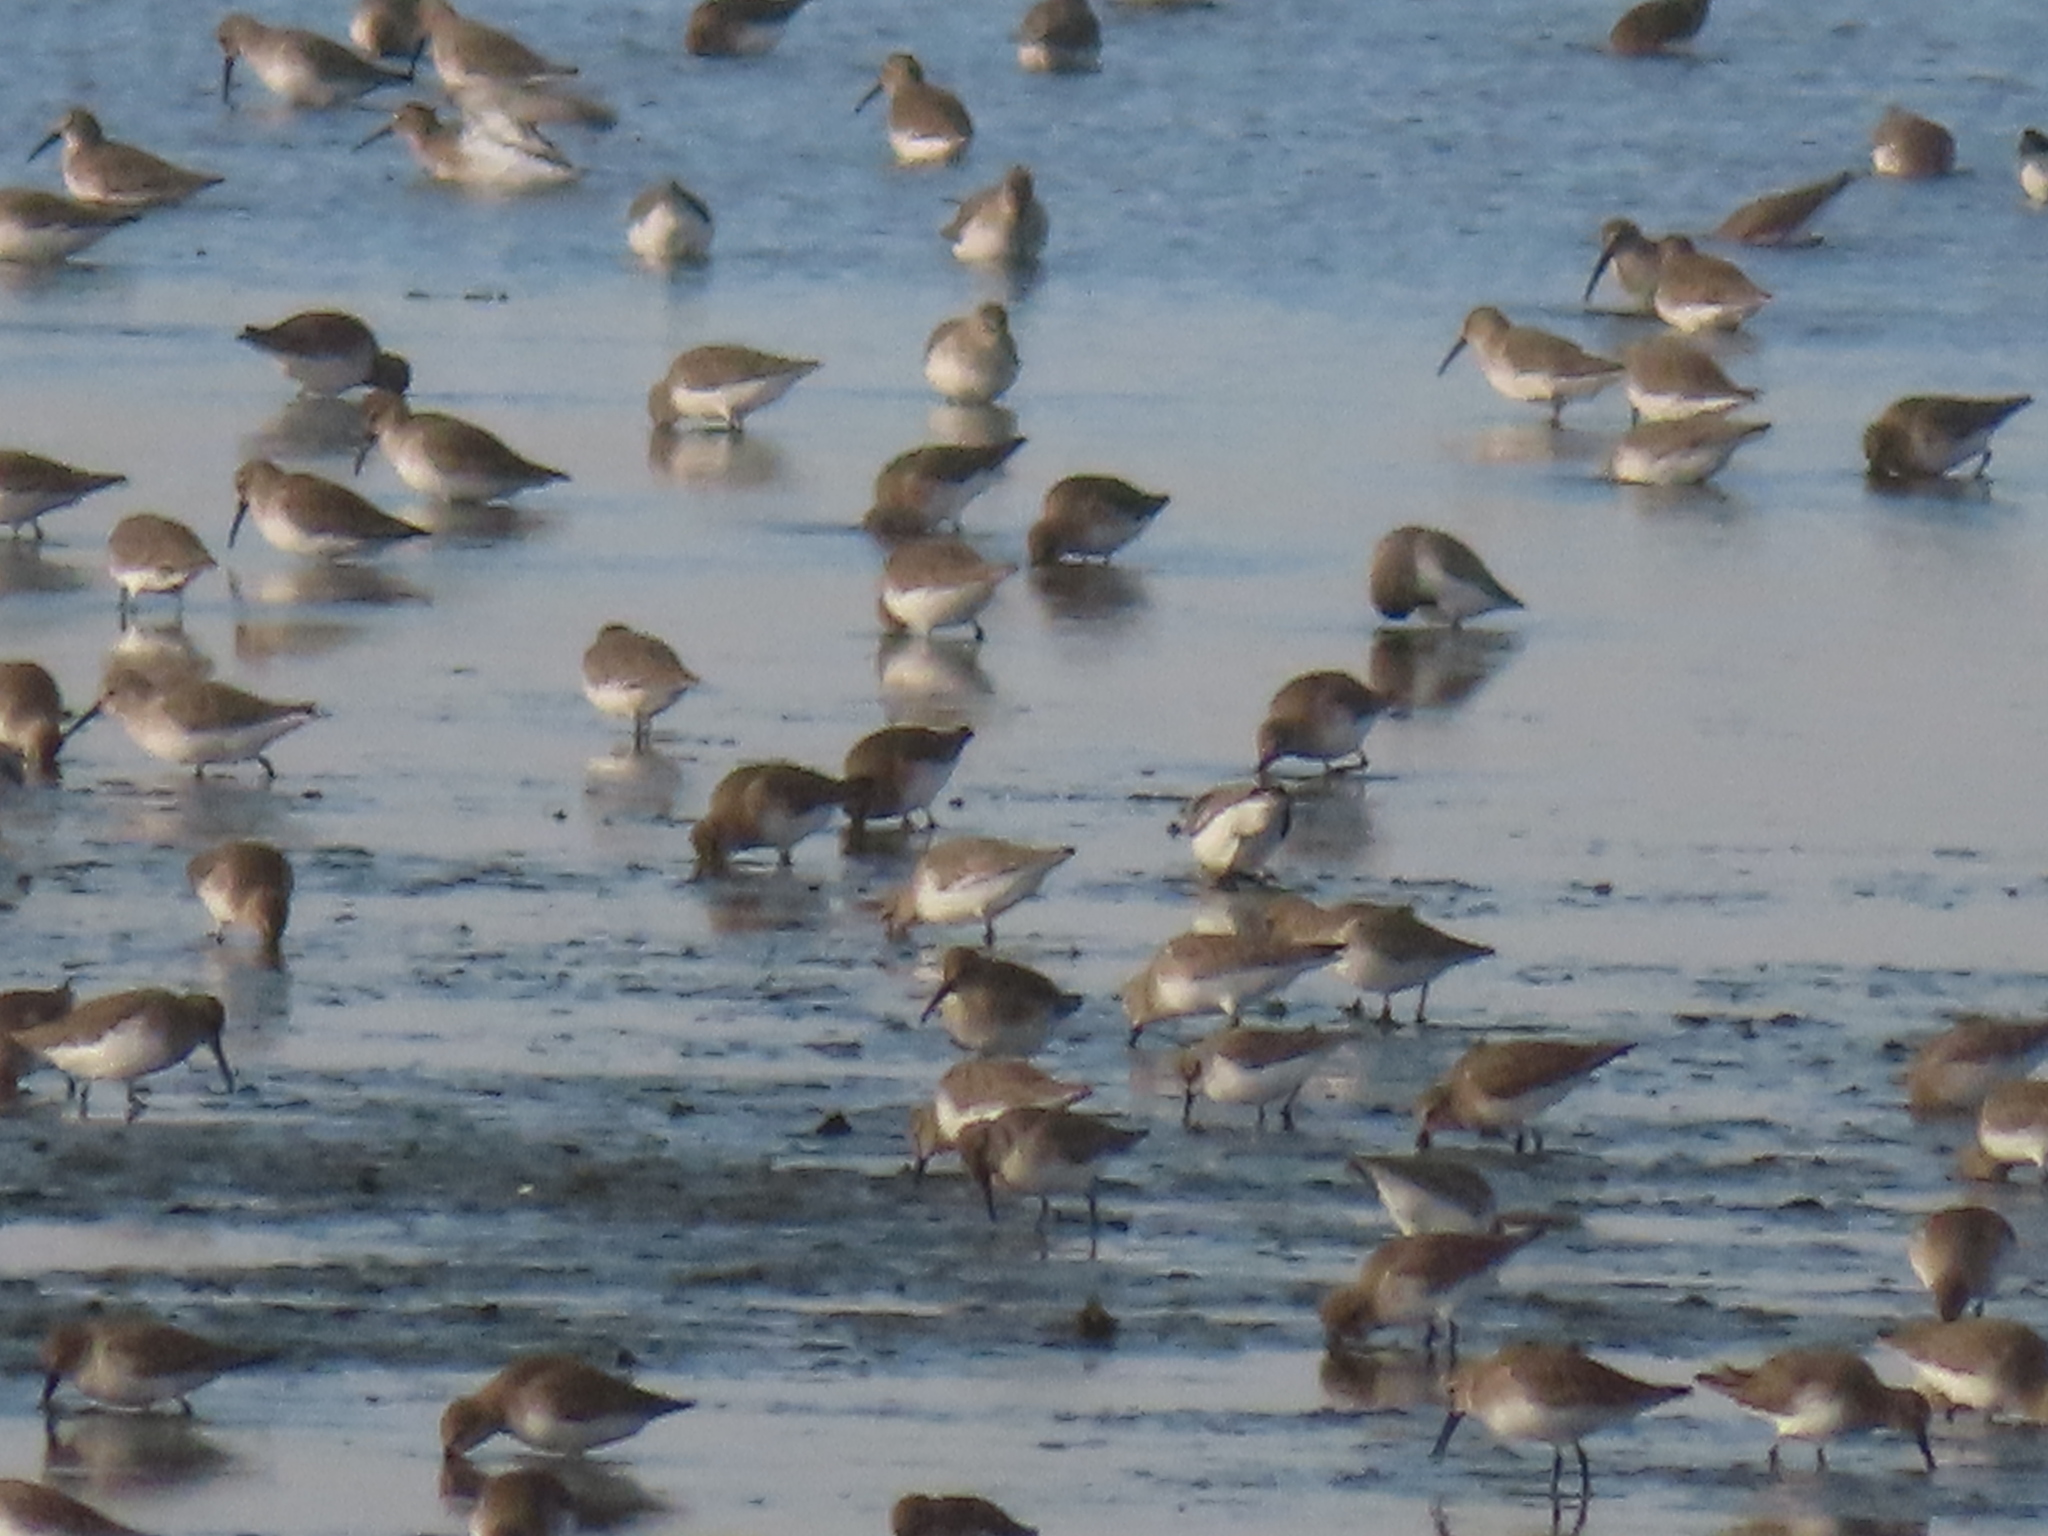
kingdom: Animalia
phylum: Chordata
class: Aves
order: Charadriiformes
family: Scolopacidae
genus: Calidris
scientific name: Calidris alpina
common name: Dunlin
